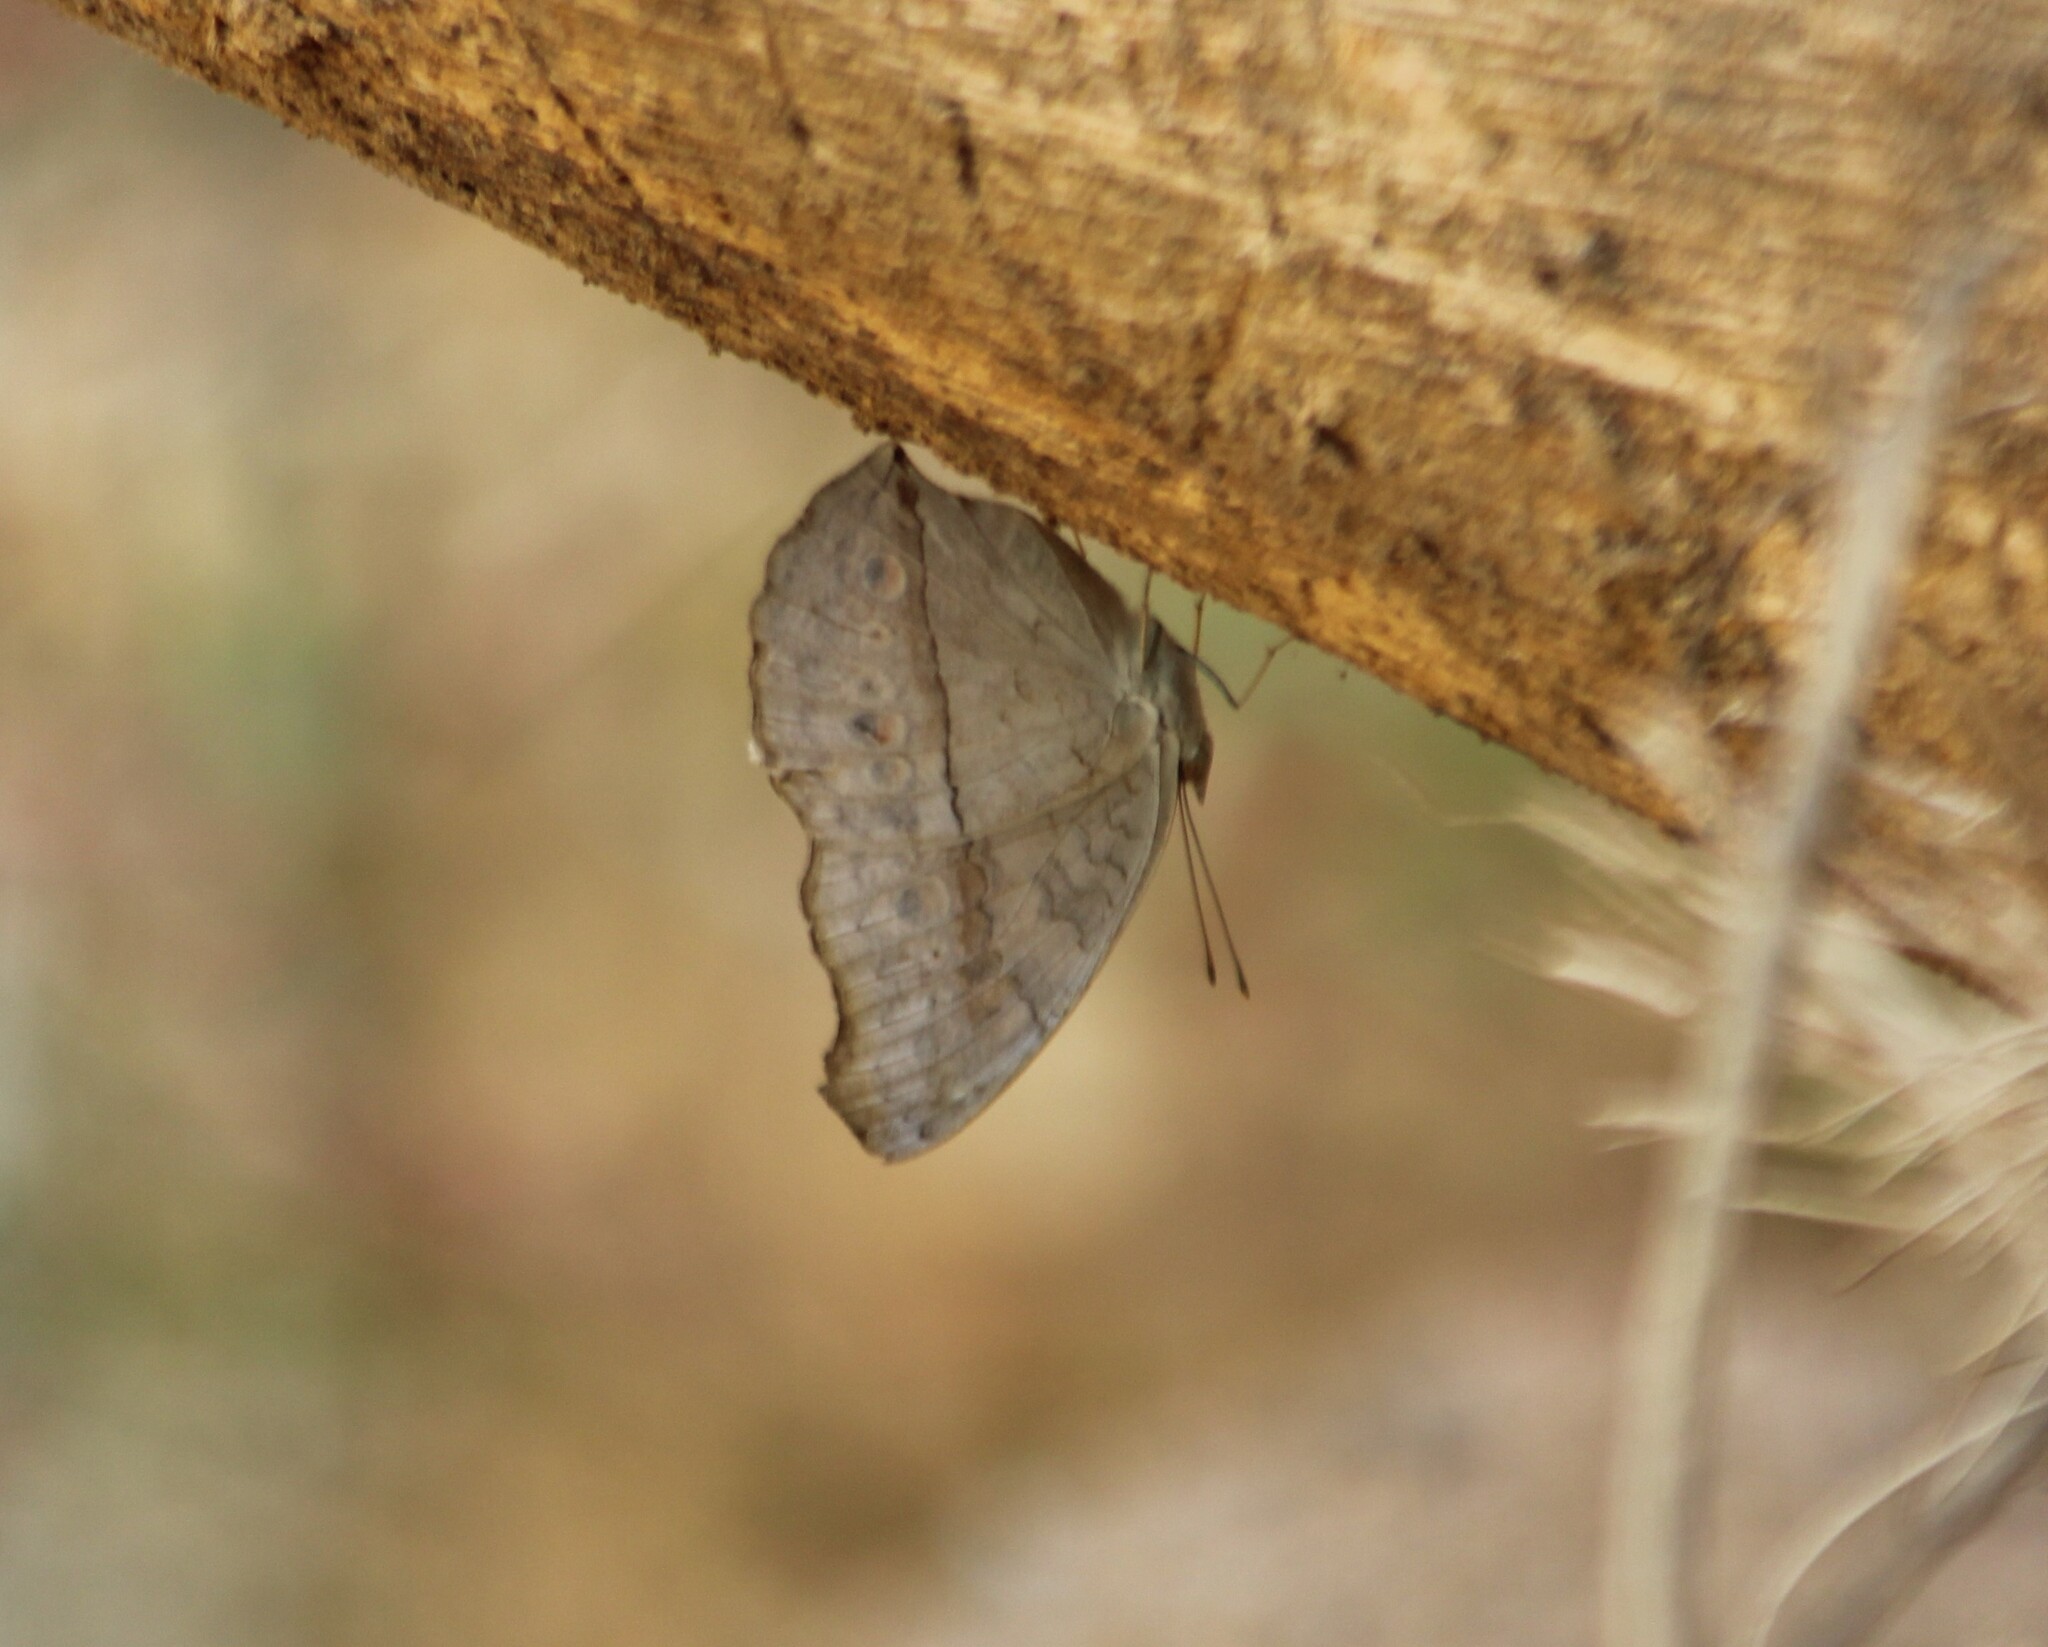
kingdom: Animalia
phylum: Arthropoda
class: Insecta
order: Lepidoptera
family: Nymphalidae
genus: Junonia
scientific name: Junonia atlites
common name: Grey pansy
